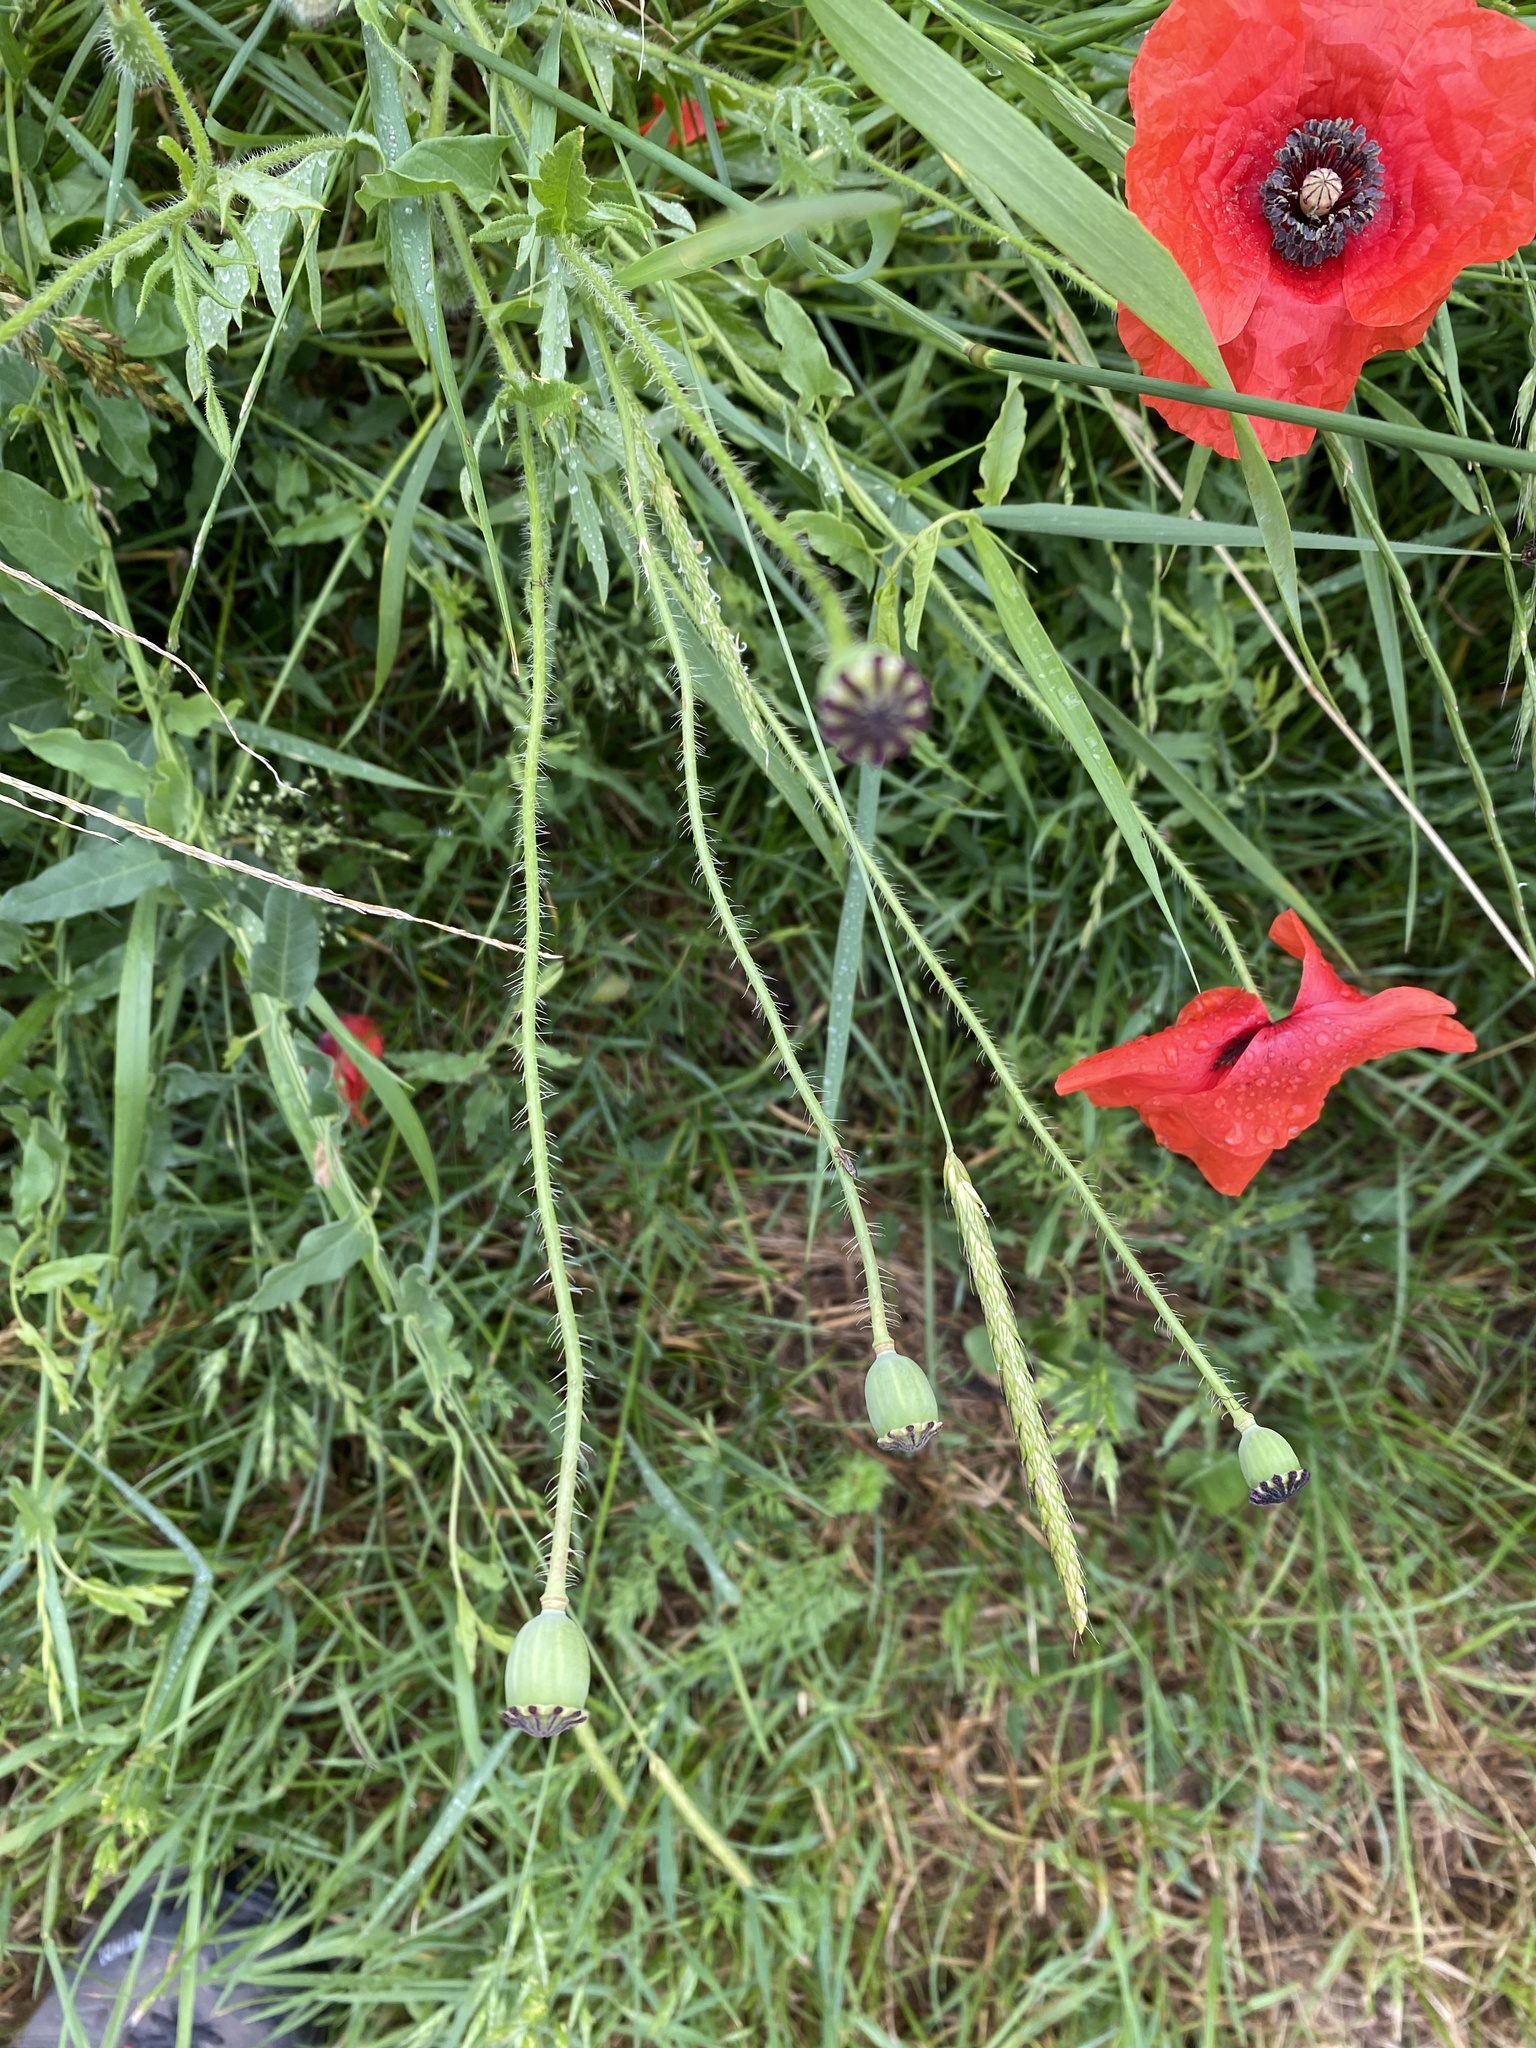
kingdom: Plantae
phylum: Tracheophyta
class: Magnoliopsida
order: Ranunculales
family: Papaveraceae
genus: Papaver
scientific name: Papaver rhoeas
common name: Corn poppy
